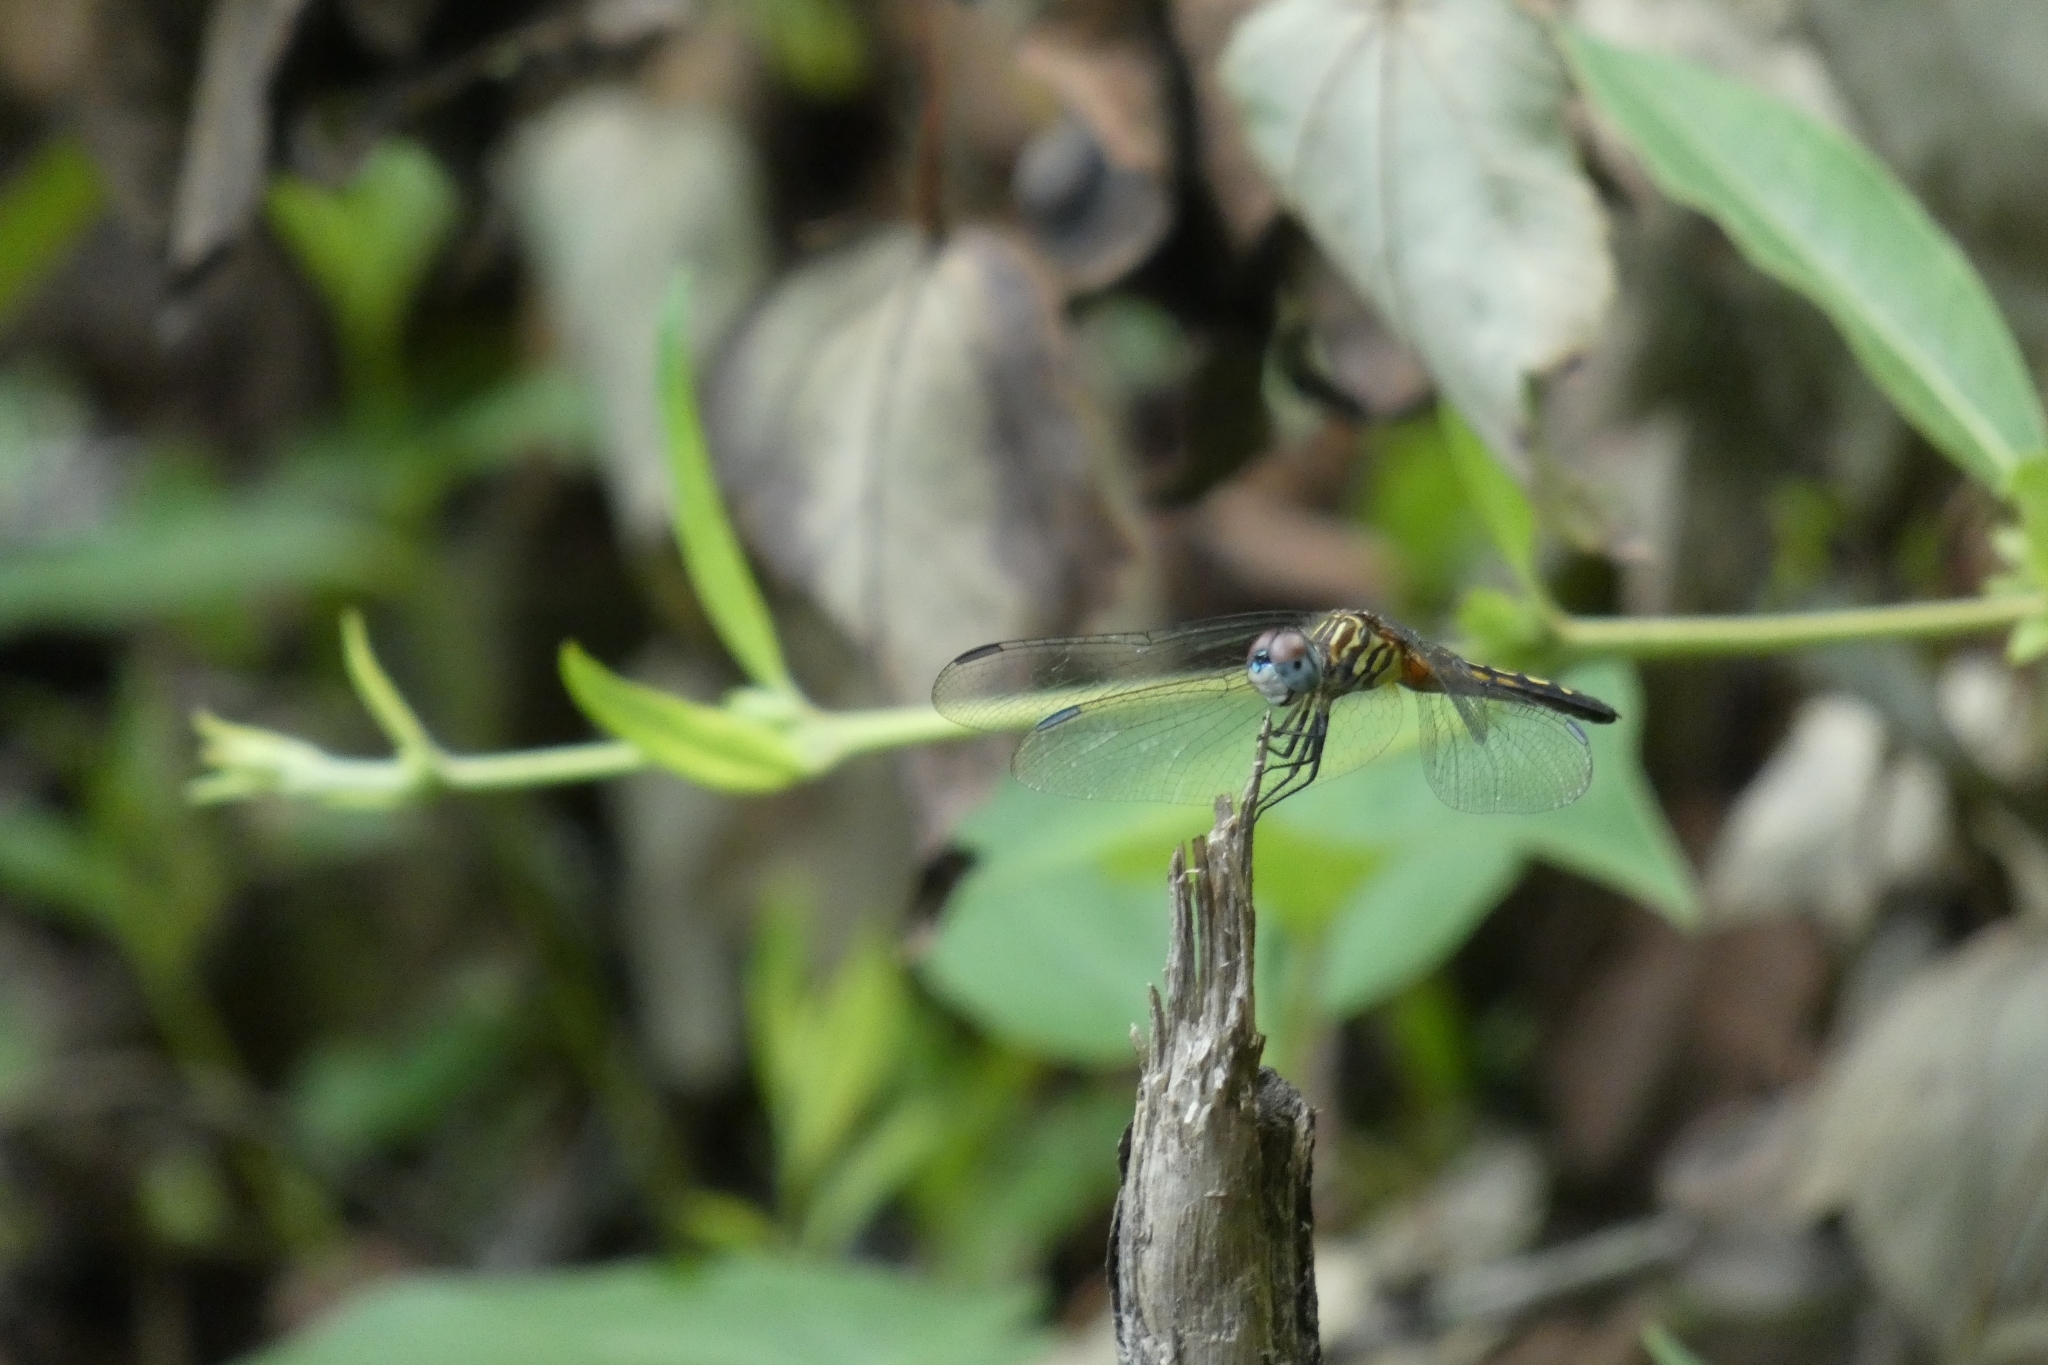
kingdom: Animalia
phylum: Arthropoda
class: Insecta
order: Odonata
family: Libellulidae
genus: Pachydiplax
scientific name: Pachydiplax longipennis
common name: Blue dasher
